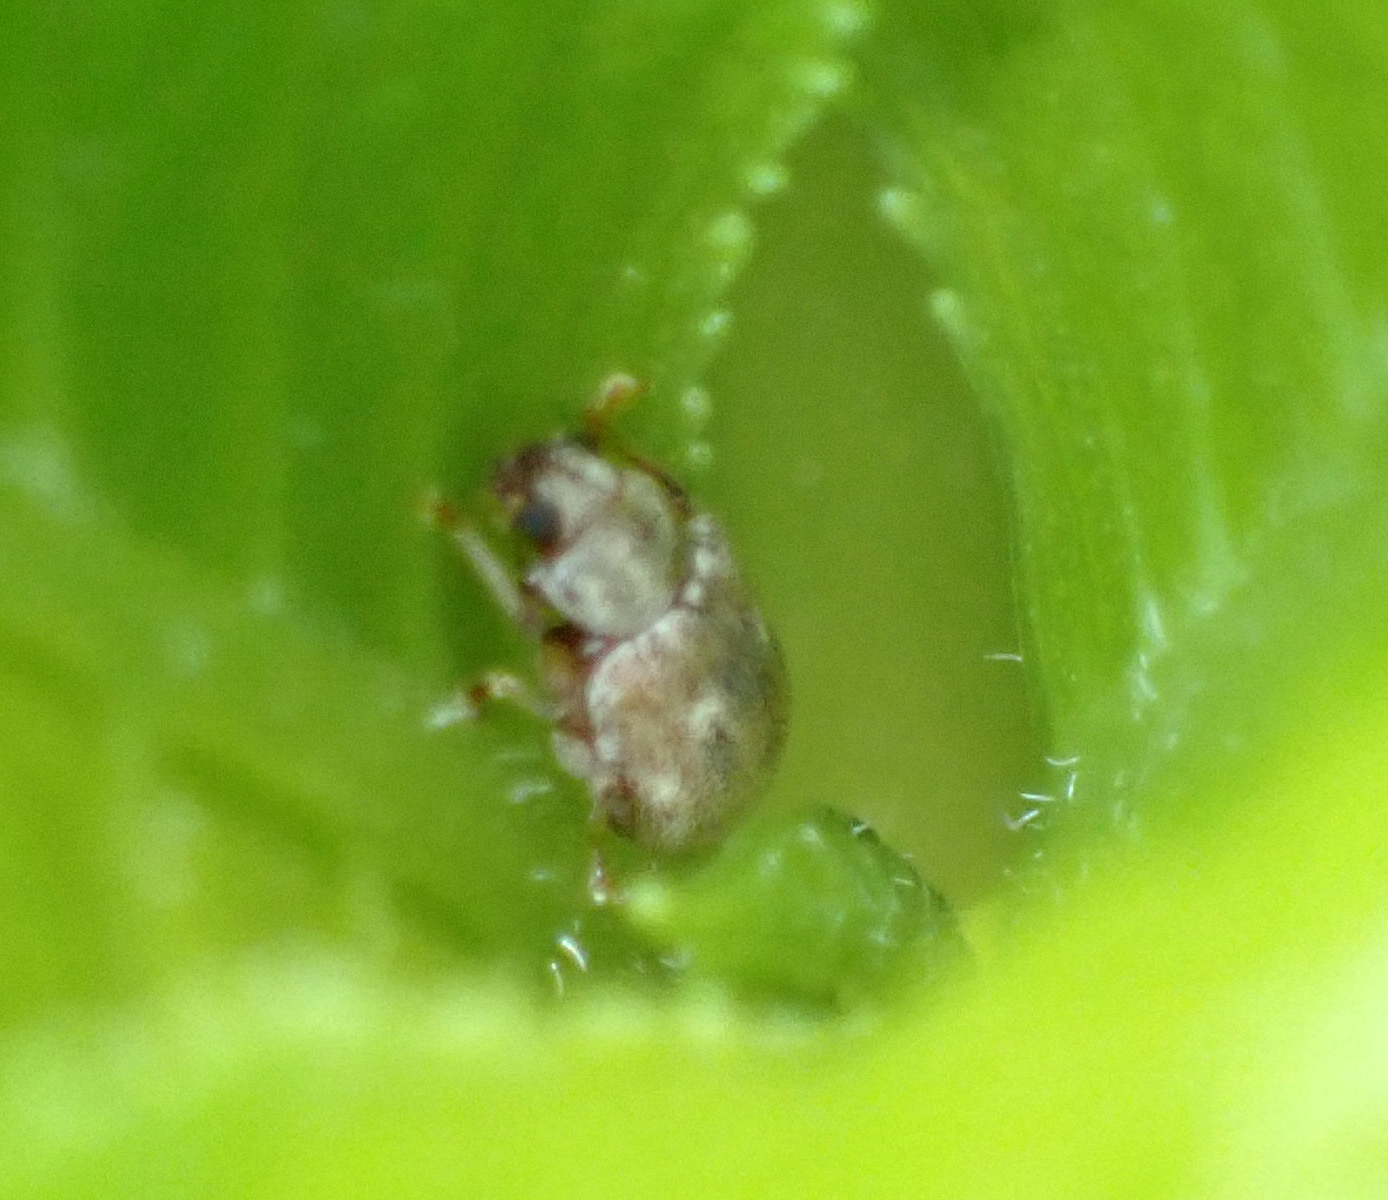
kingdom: Animalia
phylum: Arthropoda
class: Insecta
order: Coleoptera
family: Chrysomelidae
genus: Demotina
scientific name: Demotina modesta
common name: Leaf beetle
